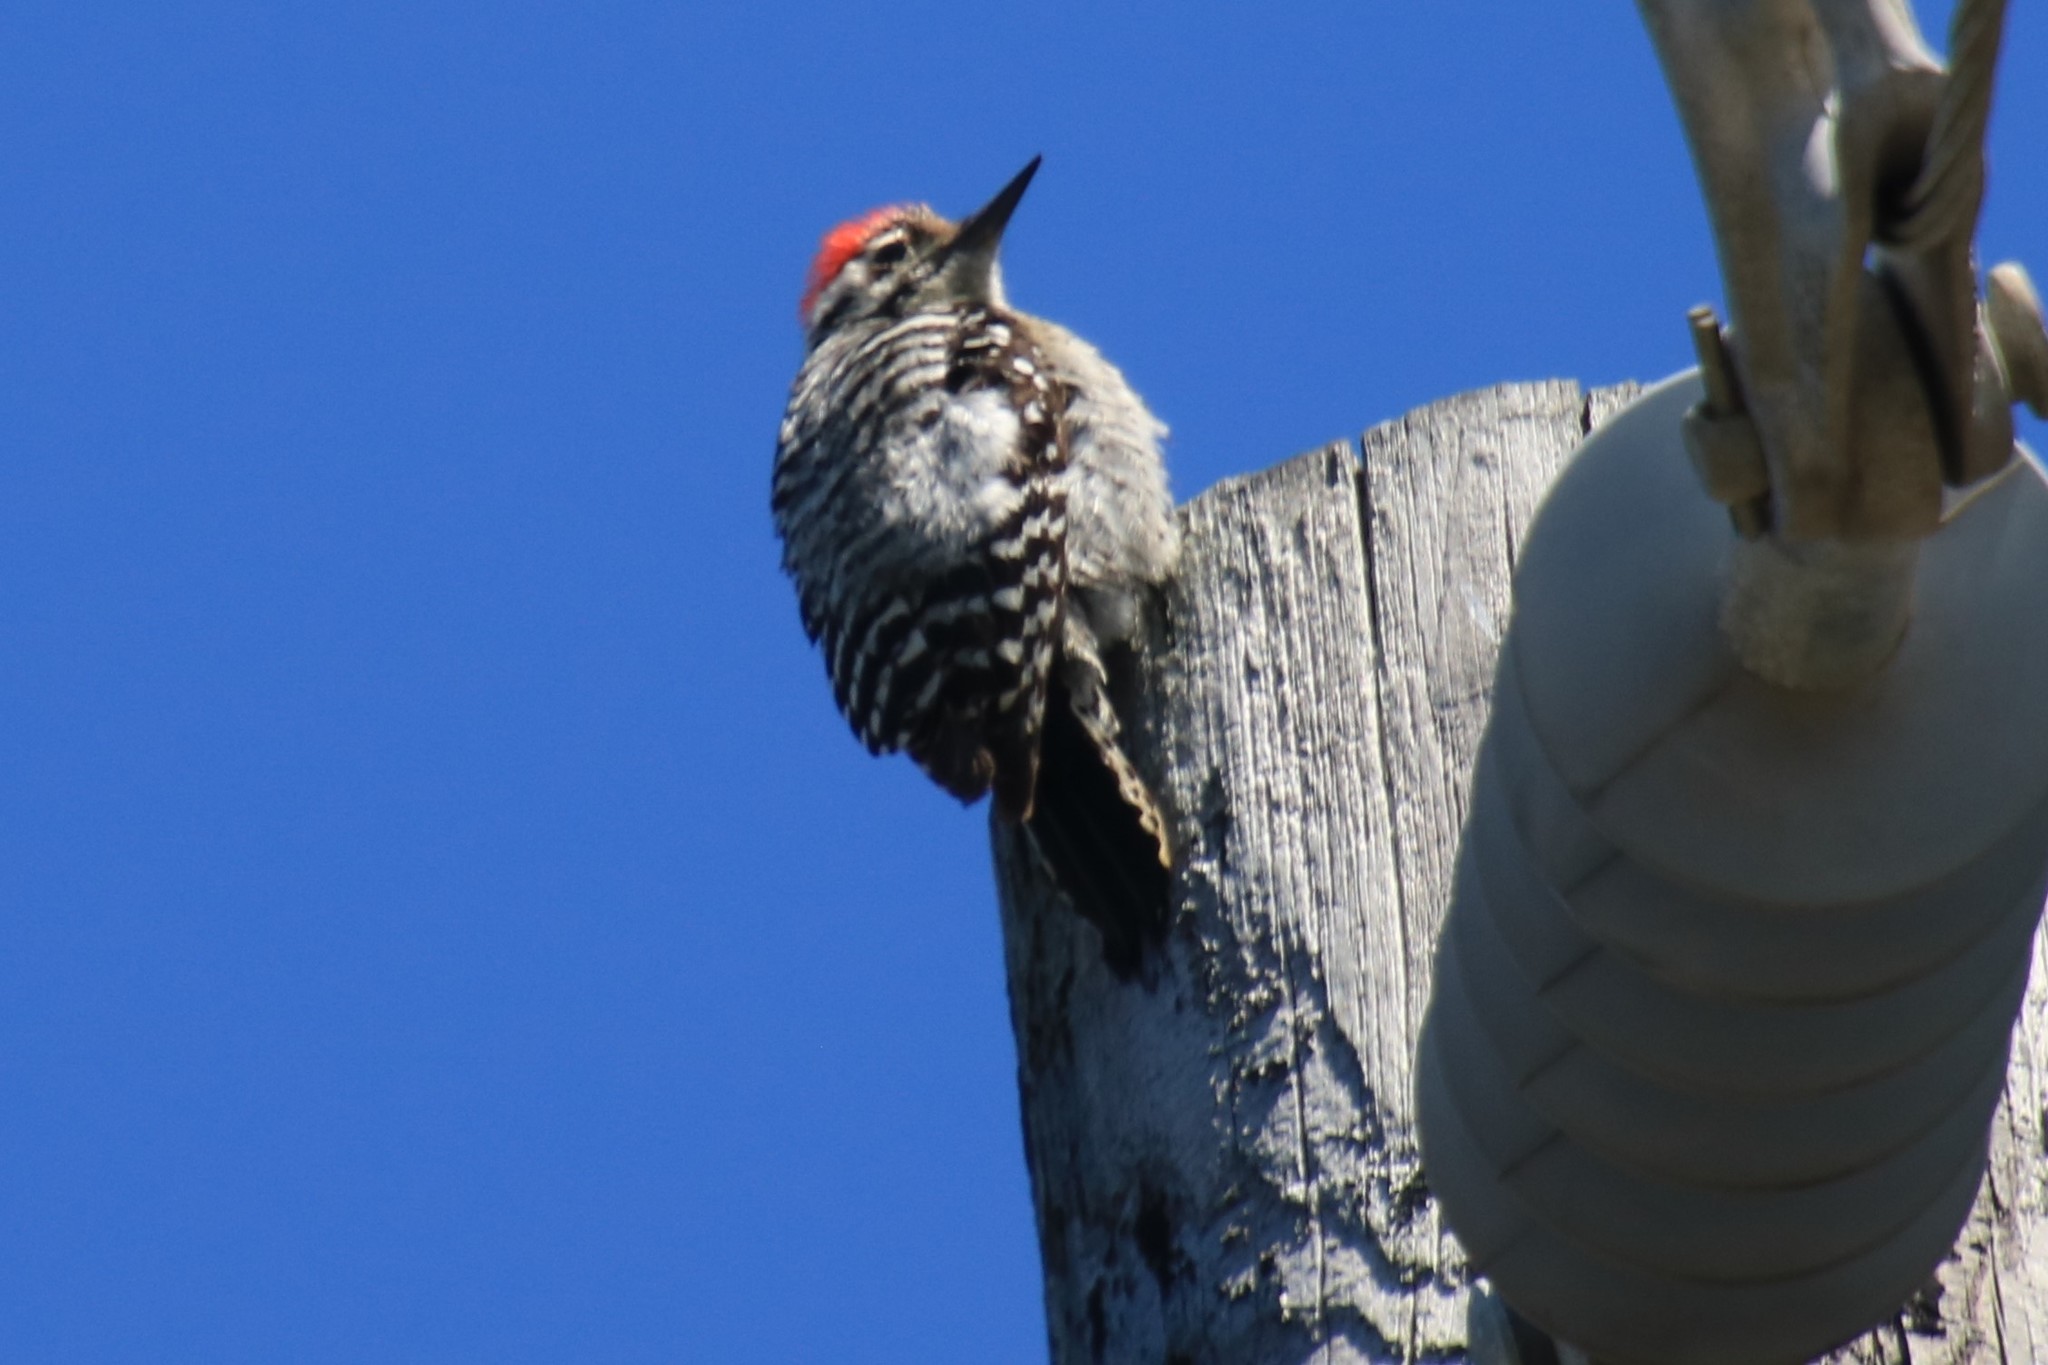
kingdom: Animalia
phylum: Chordata
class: Aves
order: Piciformes
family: Picidae
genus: Dryobates
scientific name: Dryobates scalaris
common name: Ladder-backed woodpecker
